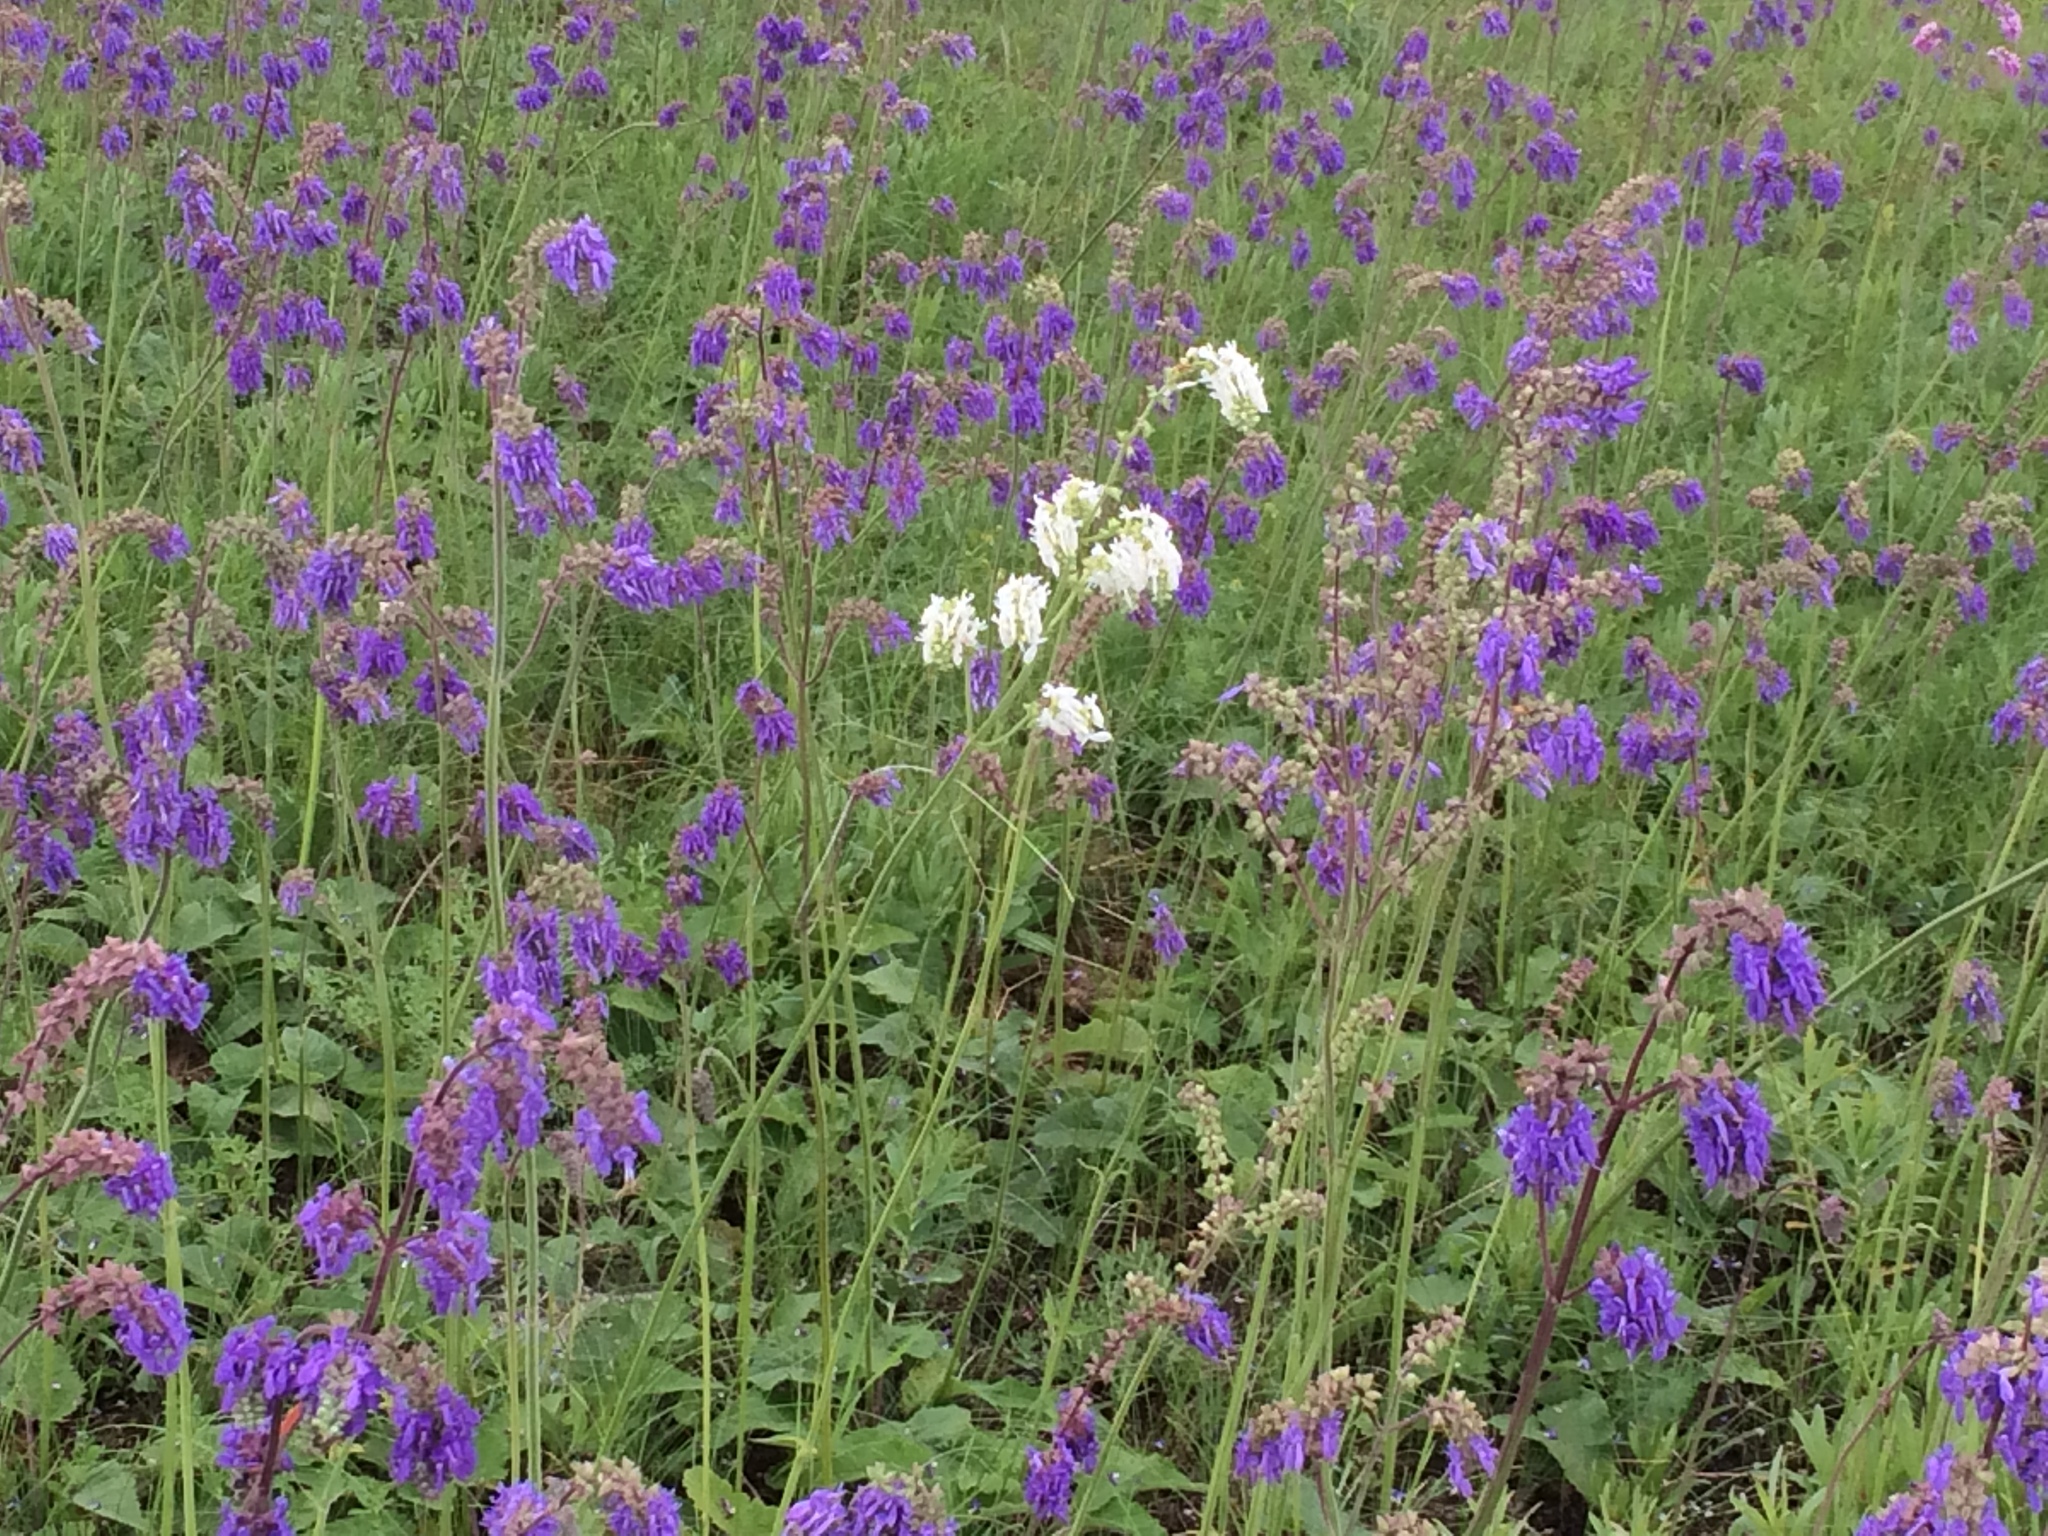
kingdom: Plantae
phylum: Tracheophyta
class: Magnoliopsida
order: Lamiales
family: Lamiaceae
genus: Salvia
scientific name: Salvia nutans
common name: Nodding sage
